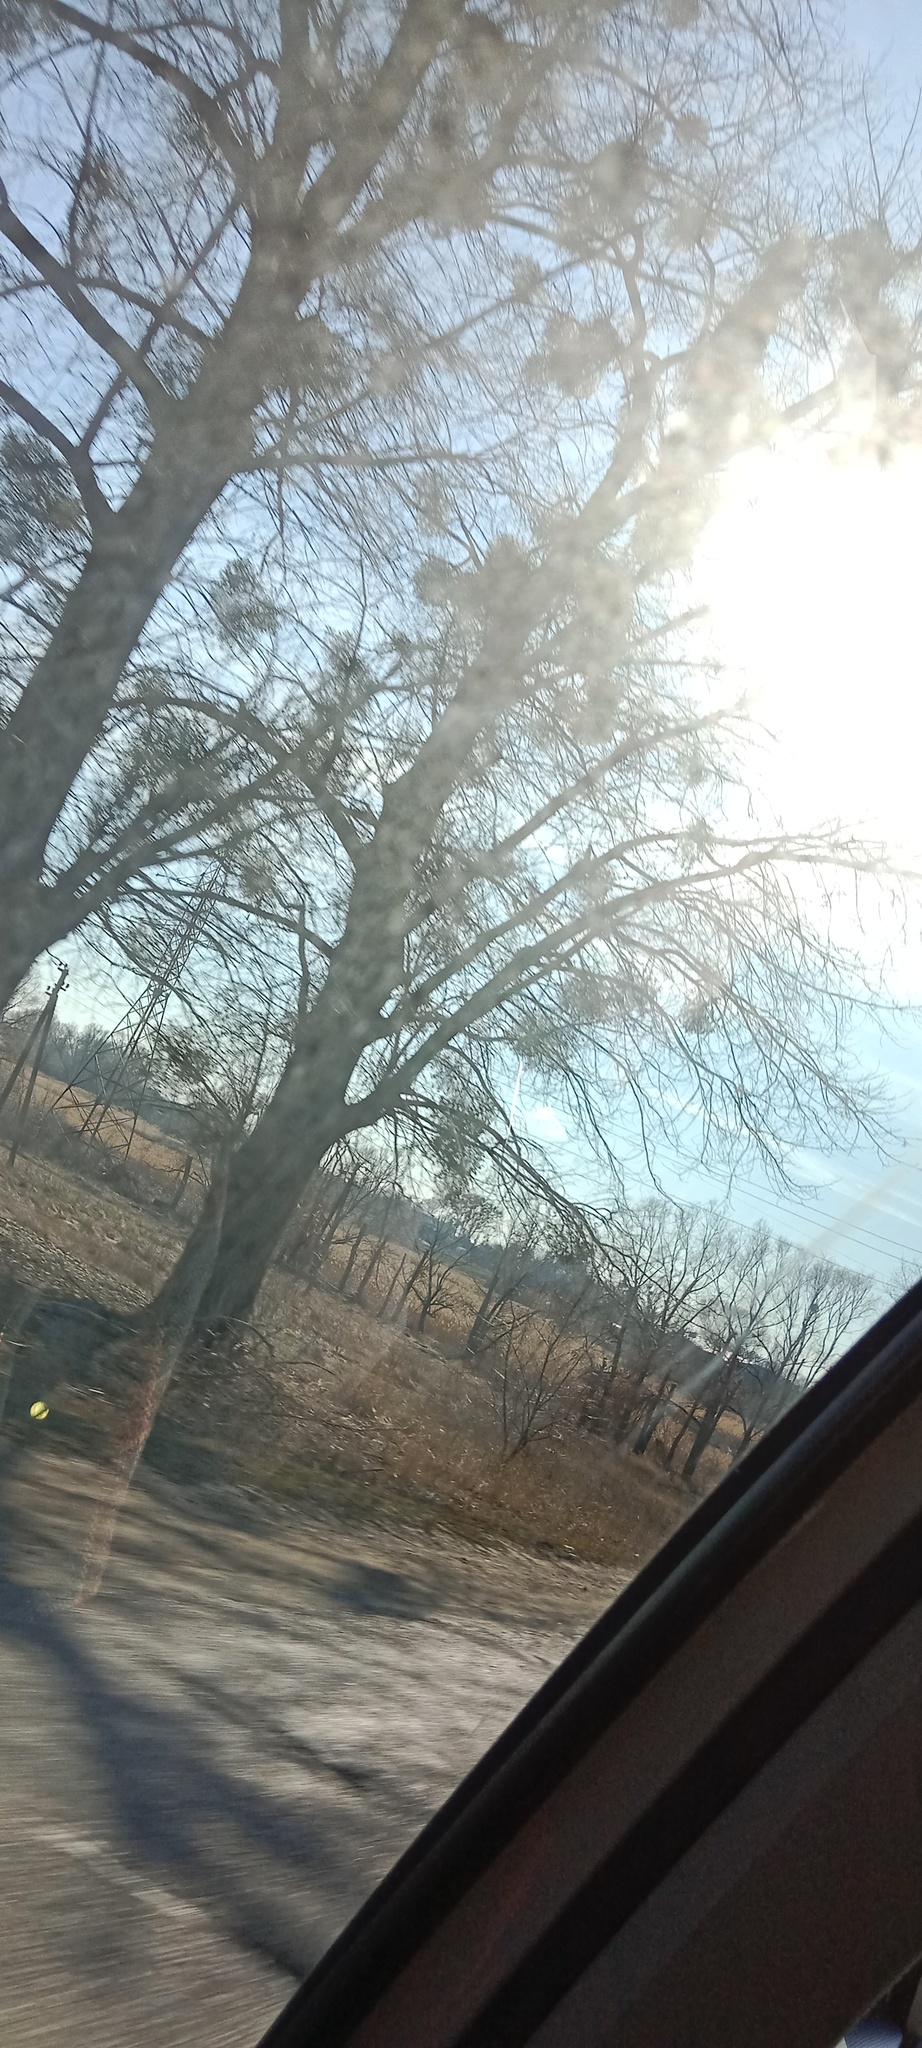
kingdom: Plantae
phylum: Tracheophyta
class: Magnoliopsida
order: Santalales
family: Viscaceae
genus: Viscum
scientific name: Viscum album
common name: Mistletoe
